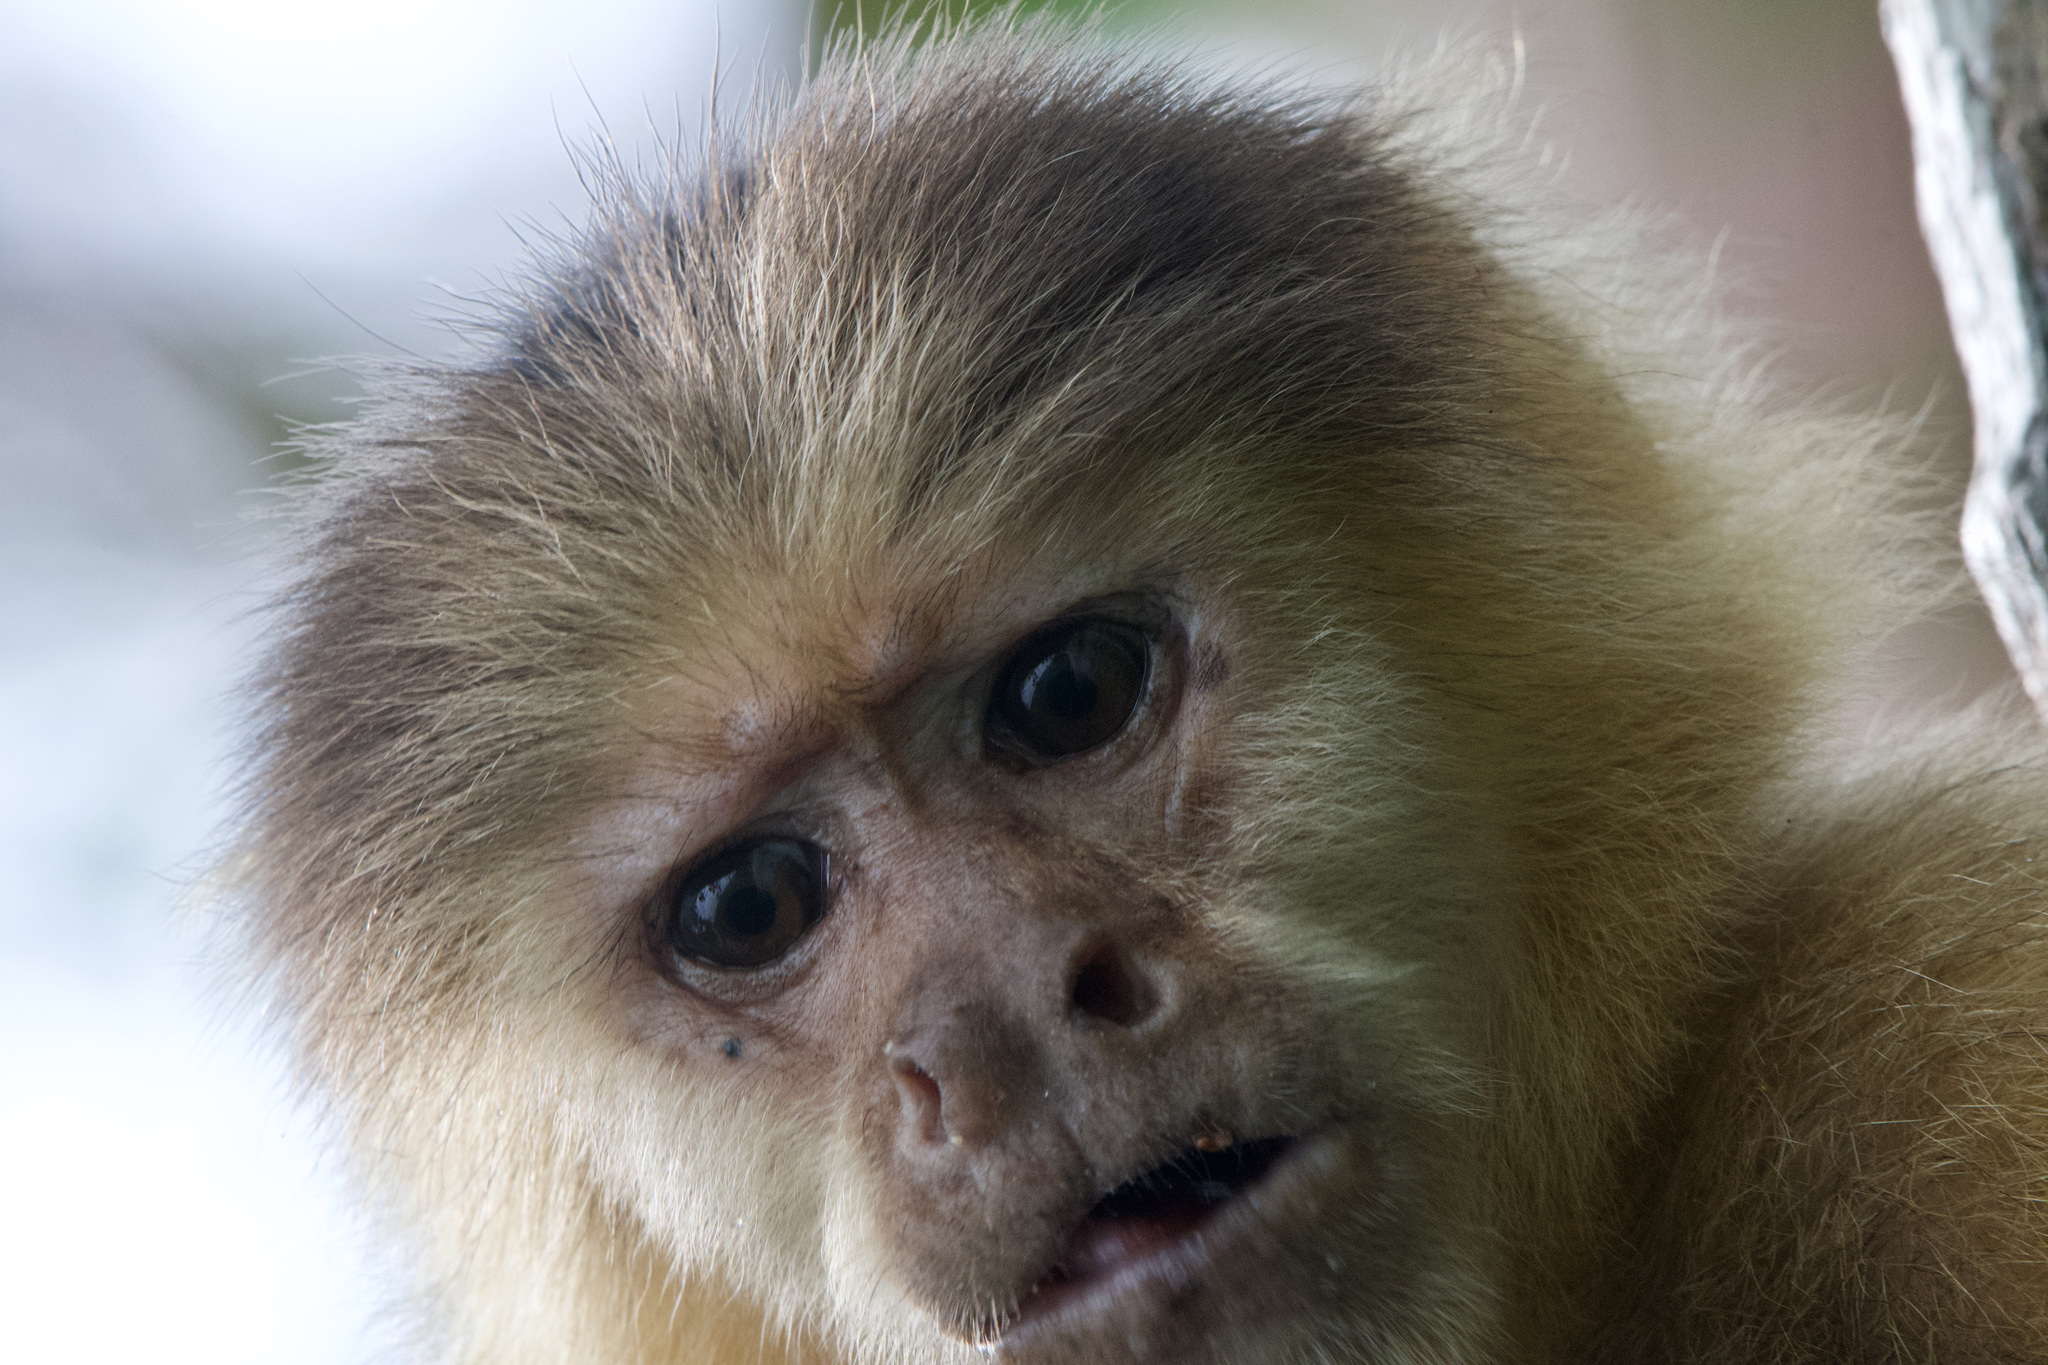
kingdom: Animalia
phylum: Chordata
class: Mammalia
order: Primates
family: Cebidae
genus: Cebus
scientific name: Cebus imitator
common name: Panamanian white-faced capuchin
